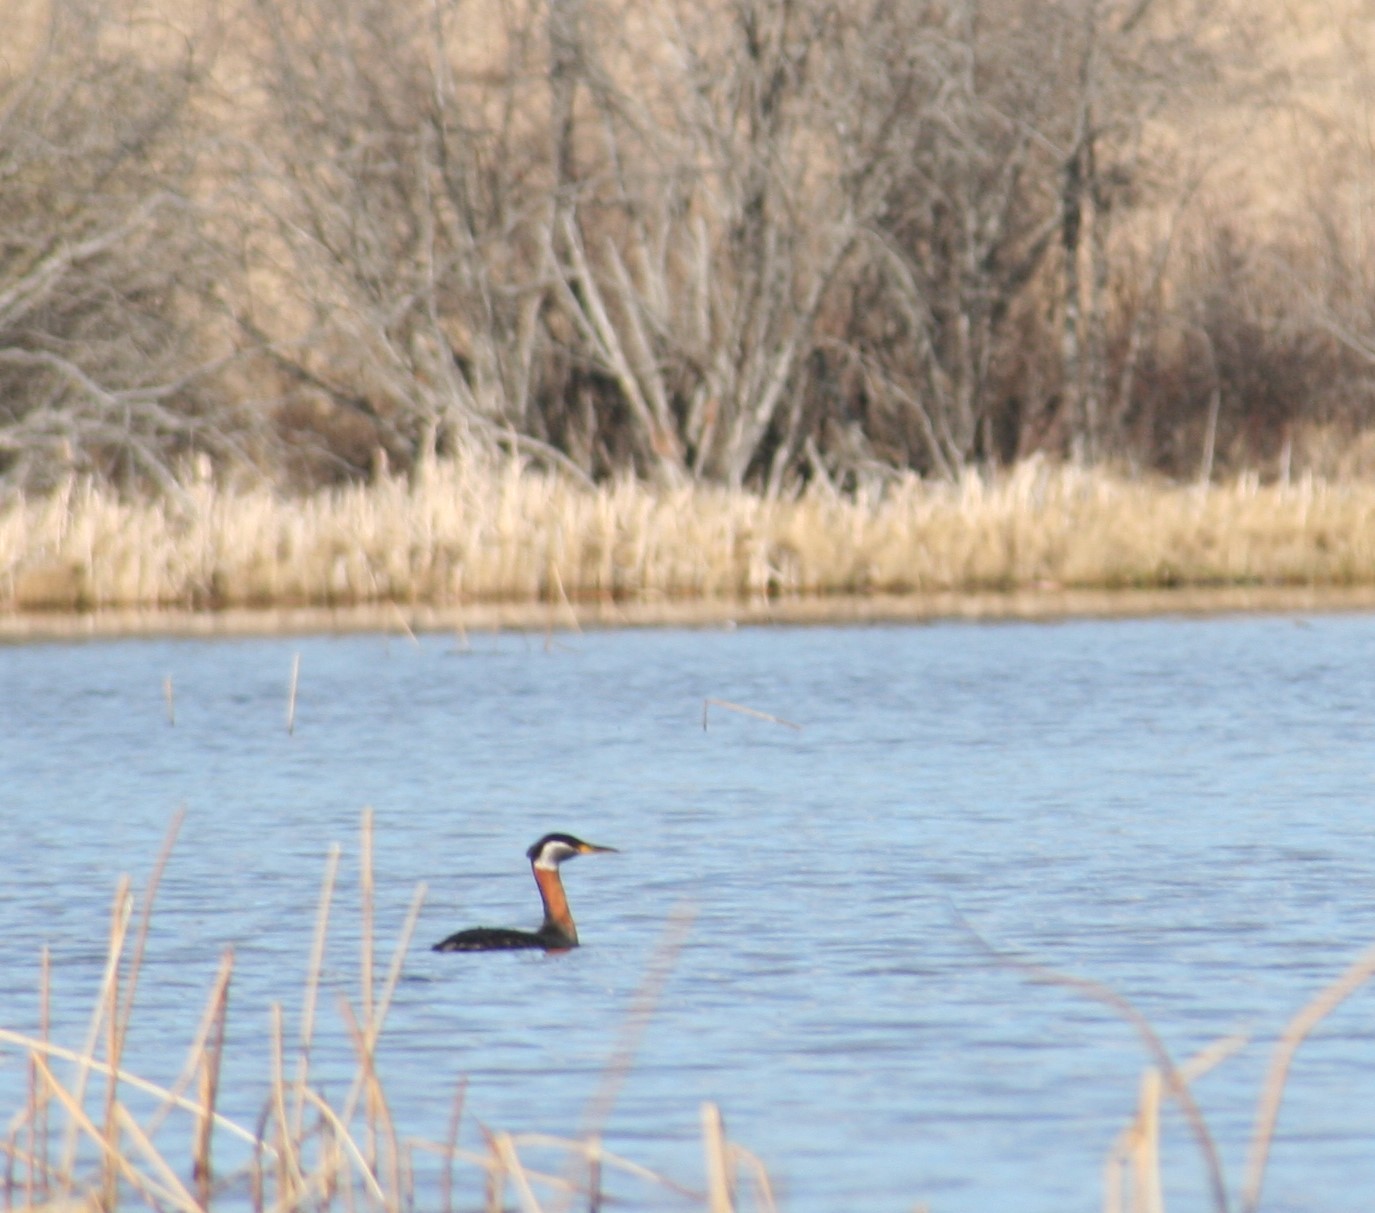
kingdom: Animalia
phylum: Chordata
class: Aves
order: Podicipediformes
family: Podicipedidae
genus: Podiceps
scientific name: Podiceps grisegena
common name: Red-necked grebe
